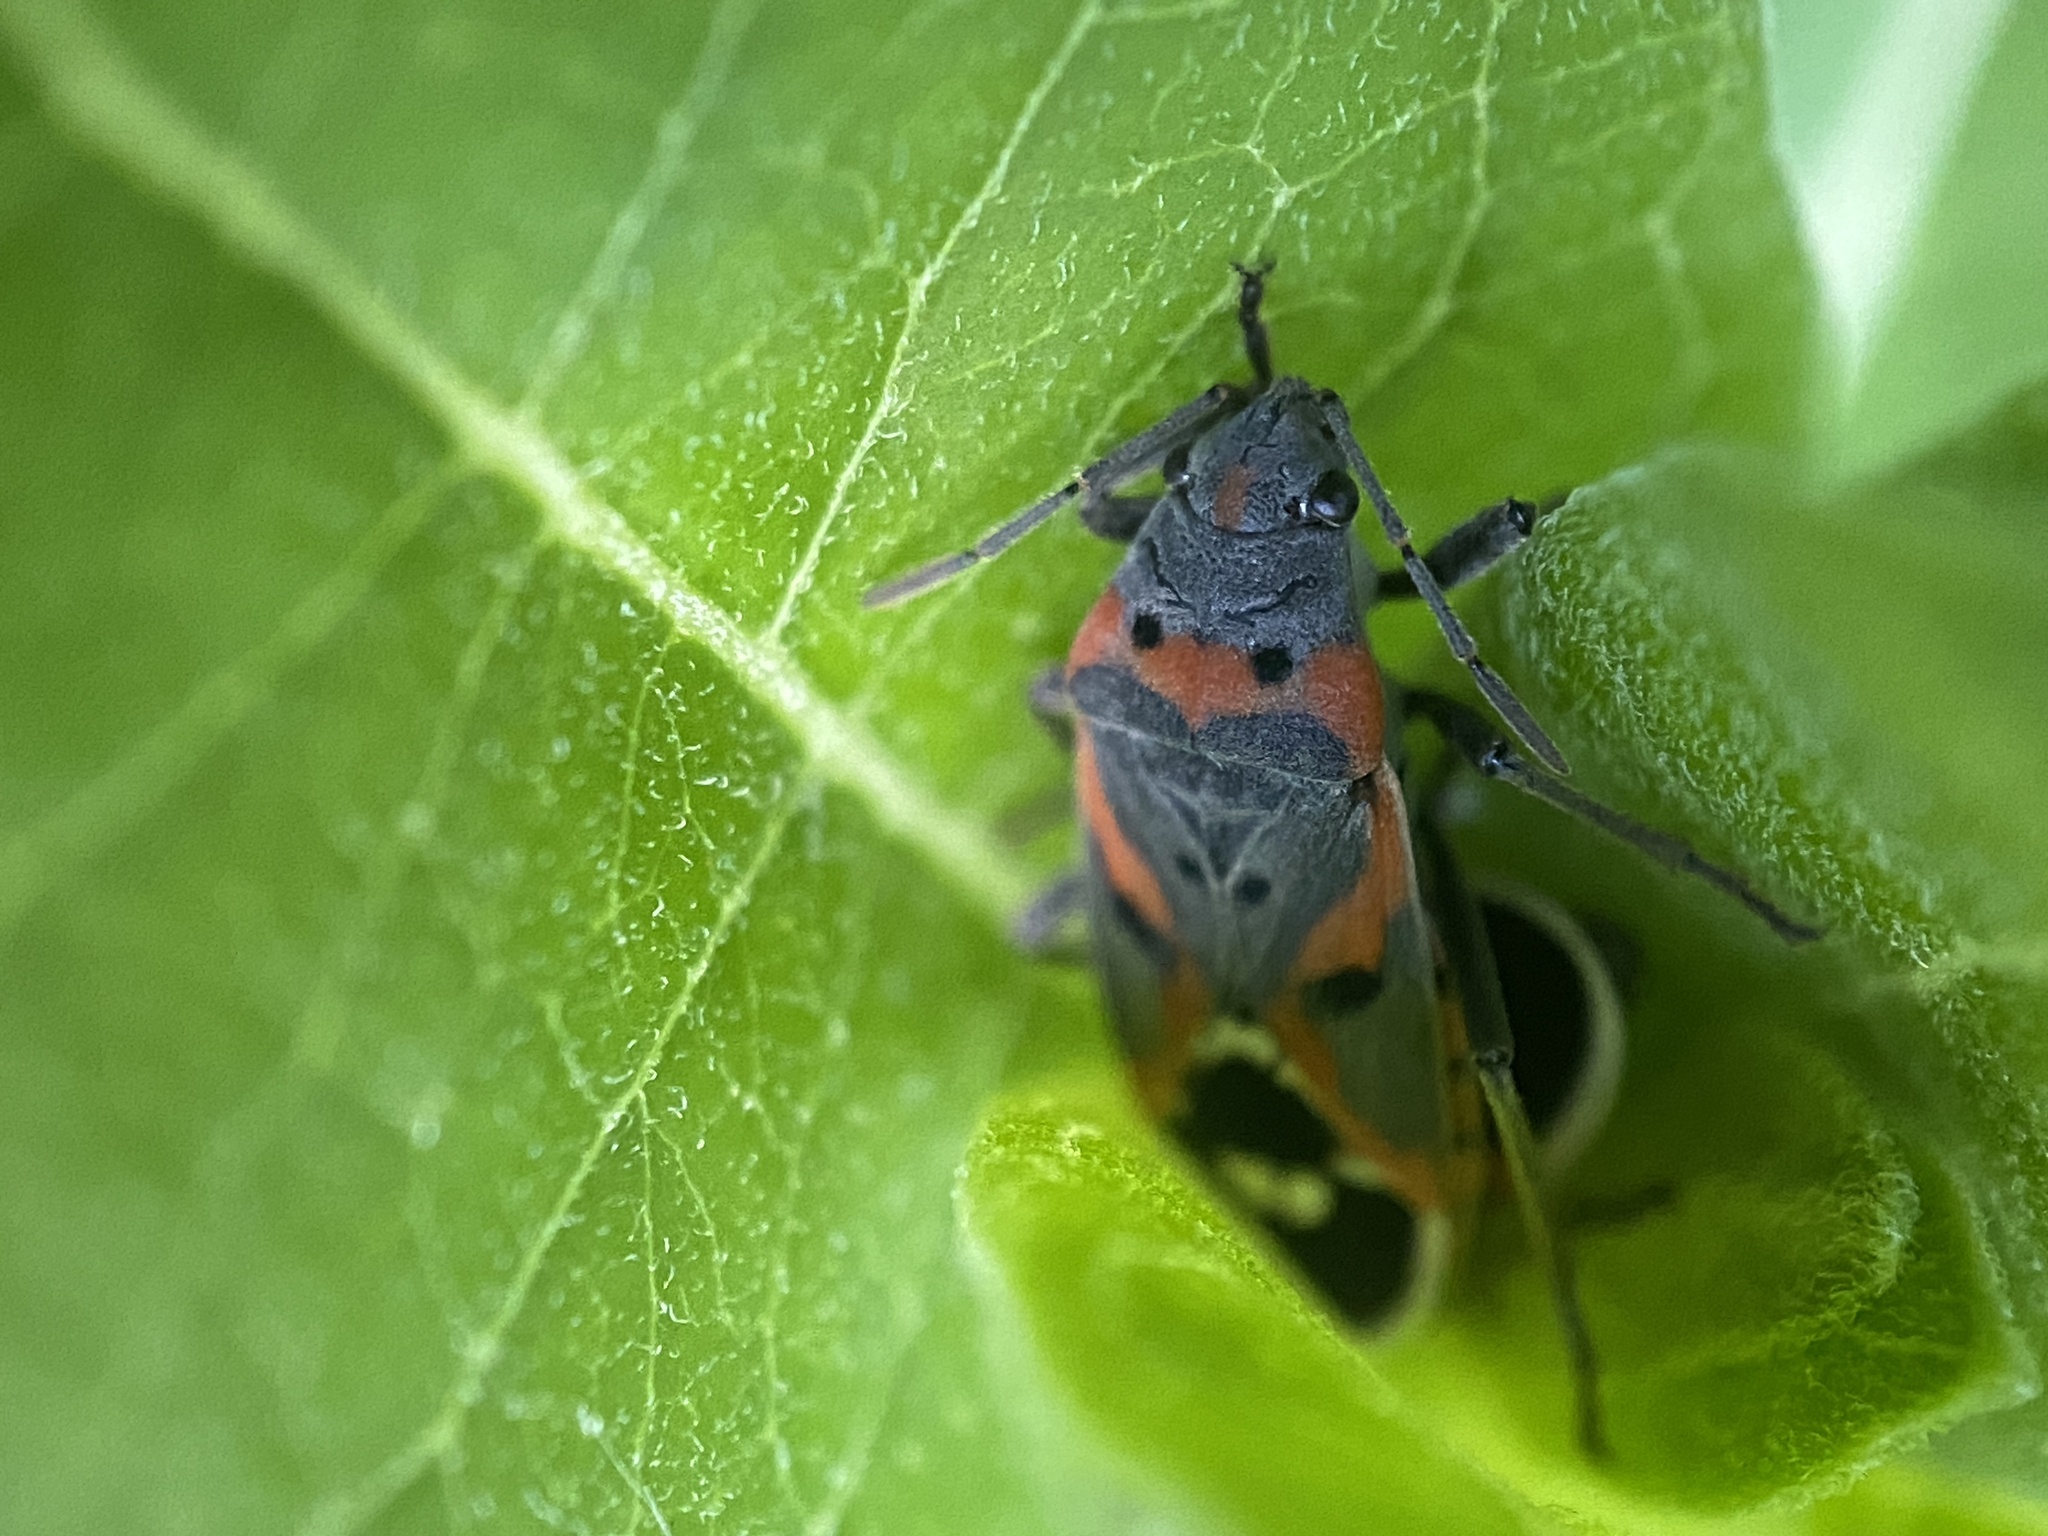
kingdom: Animalia
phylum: Arthropoda
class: Insecta
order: Hemiptera
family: Lygaeidae
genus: Lygaeus
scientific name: Lygaeus kalmii
